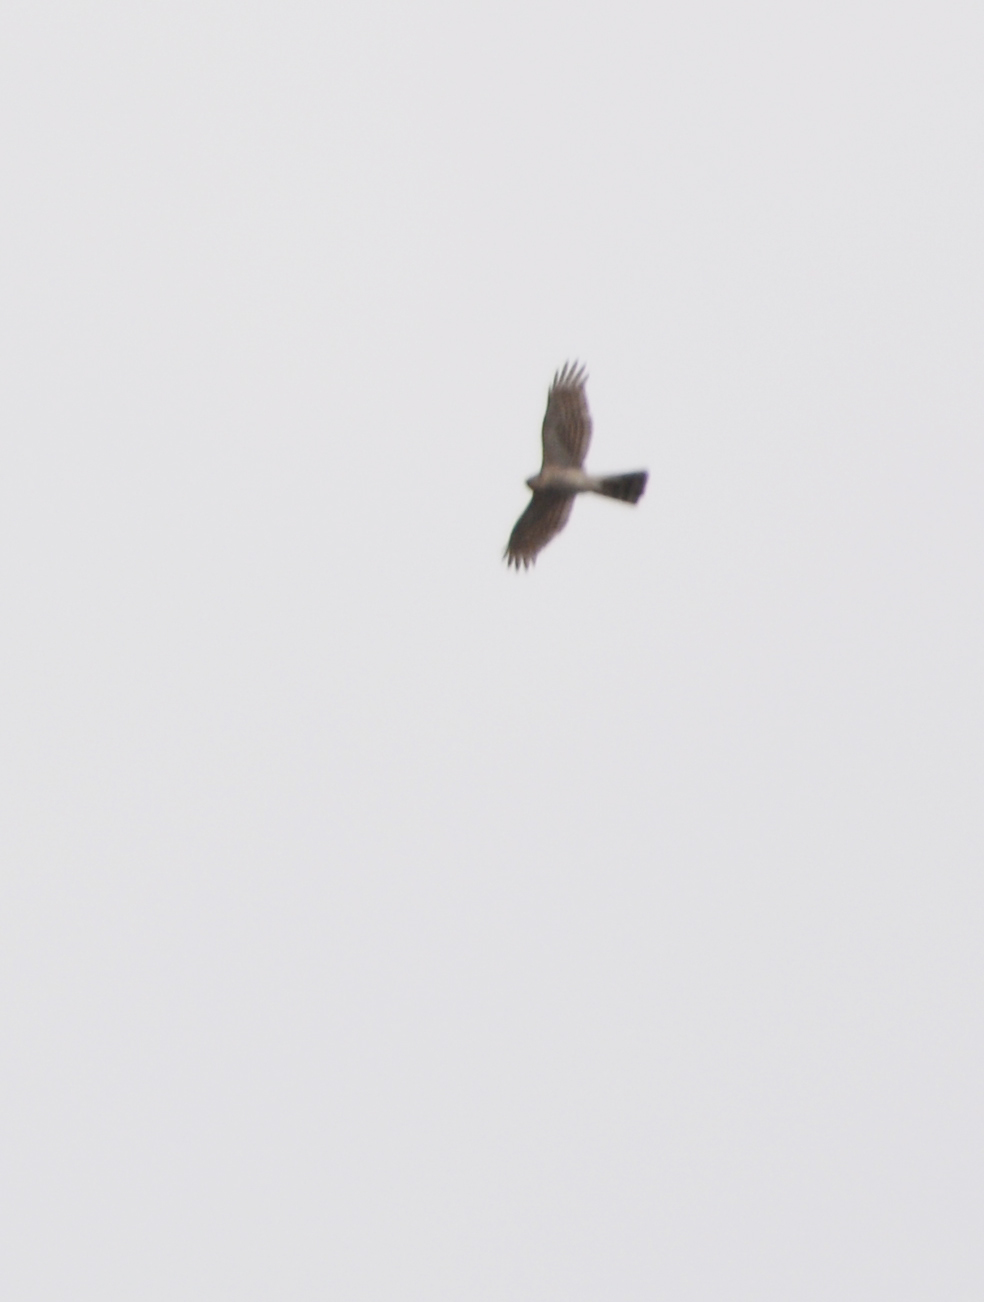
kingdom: Animalia
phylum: Chordata
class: Aves
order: Accipitriformes
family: Accipitridae
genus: Accipiter
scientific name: Accipiter nisus
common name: Eurasian sparrowhawk
